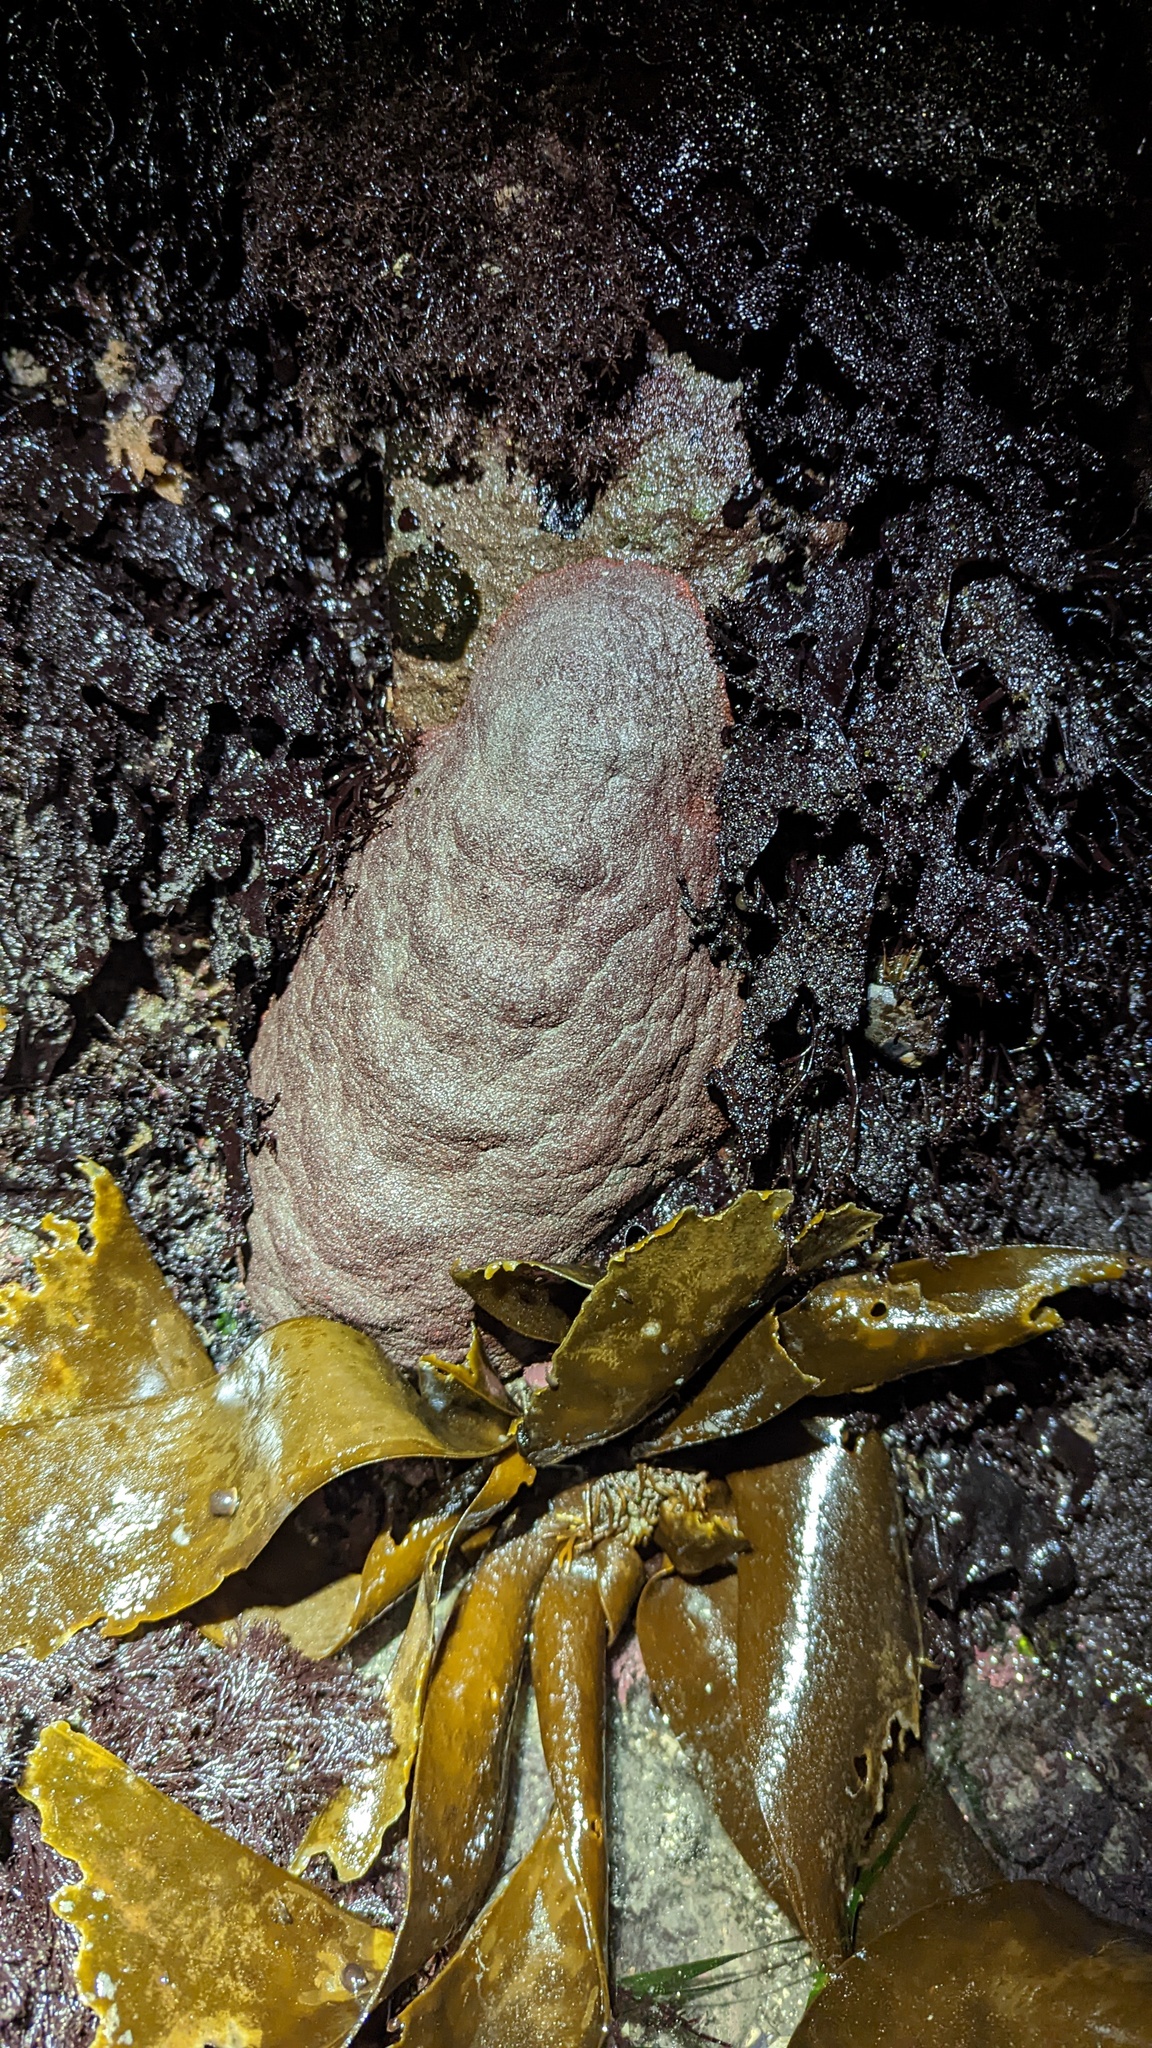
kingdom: Animalia
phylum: Mollusca
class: Polyplacophora
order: Chitonida
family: Acanthochitonidae
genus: Cryptochiton
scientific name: Cryptochiton stelleri
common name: Giant pacific chiton
